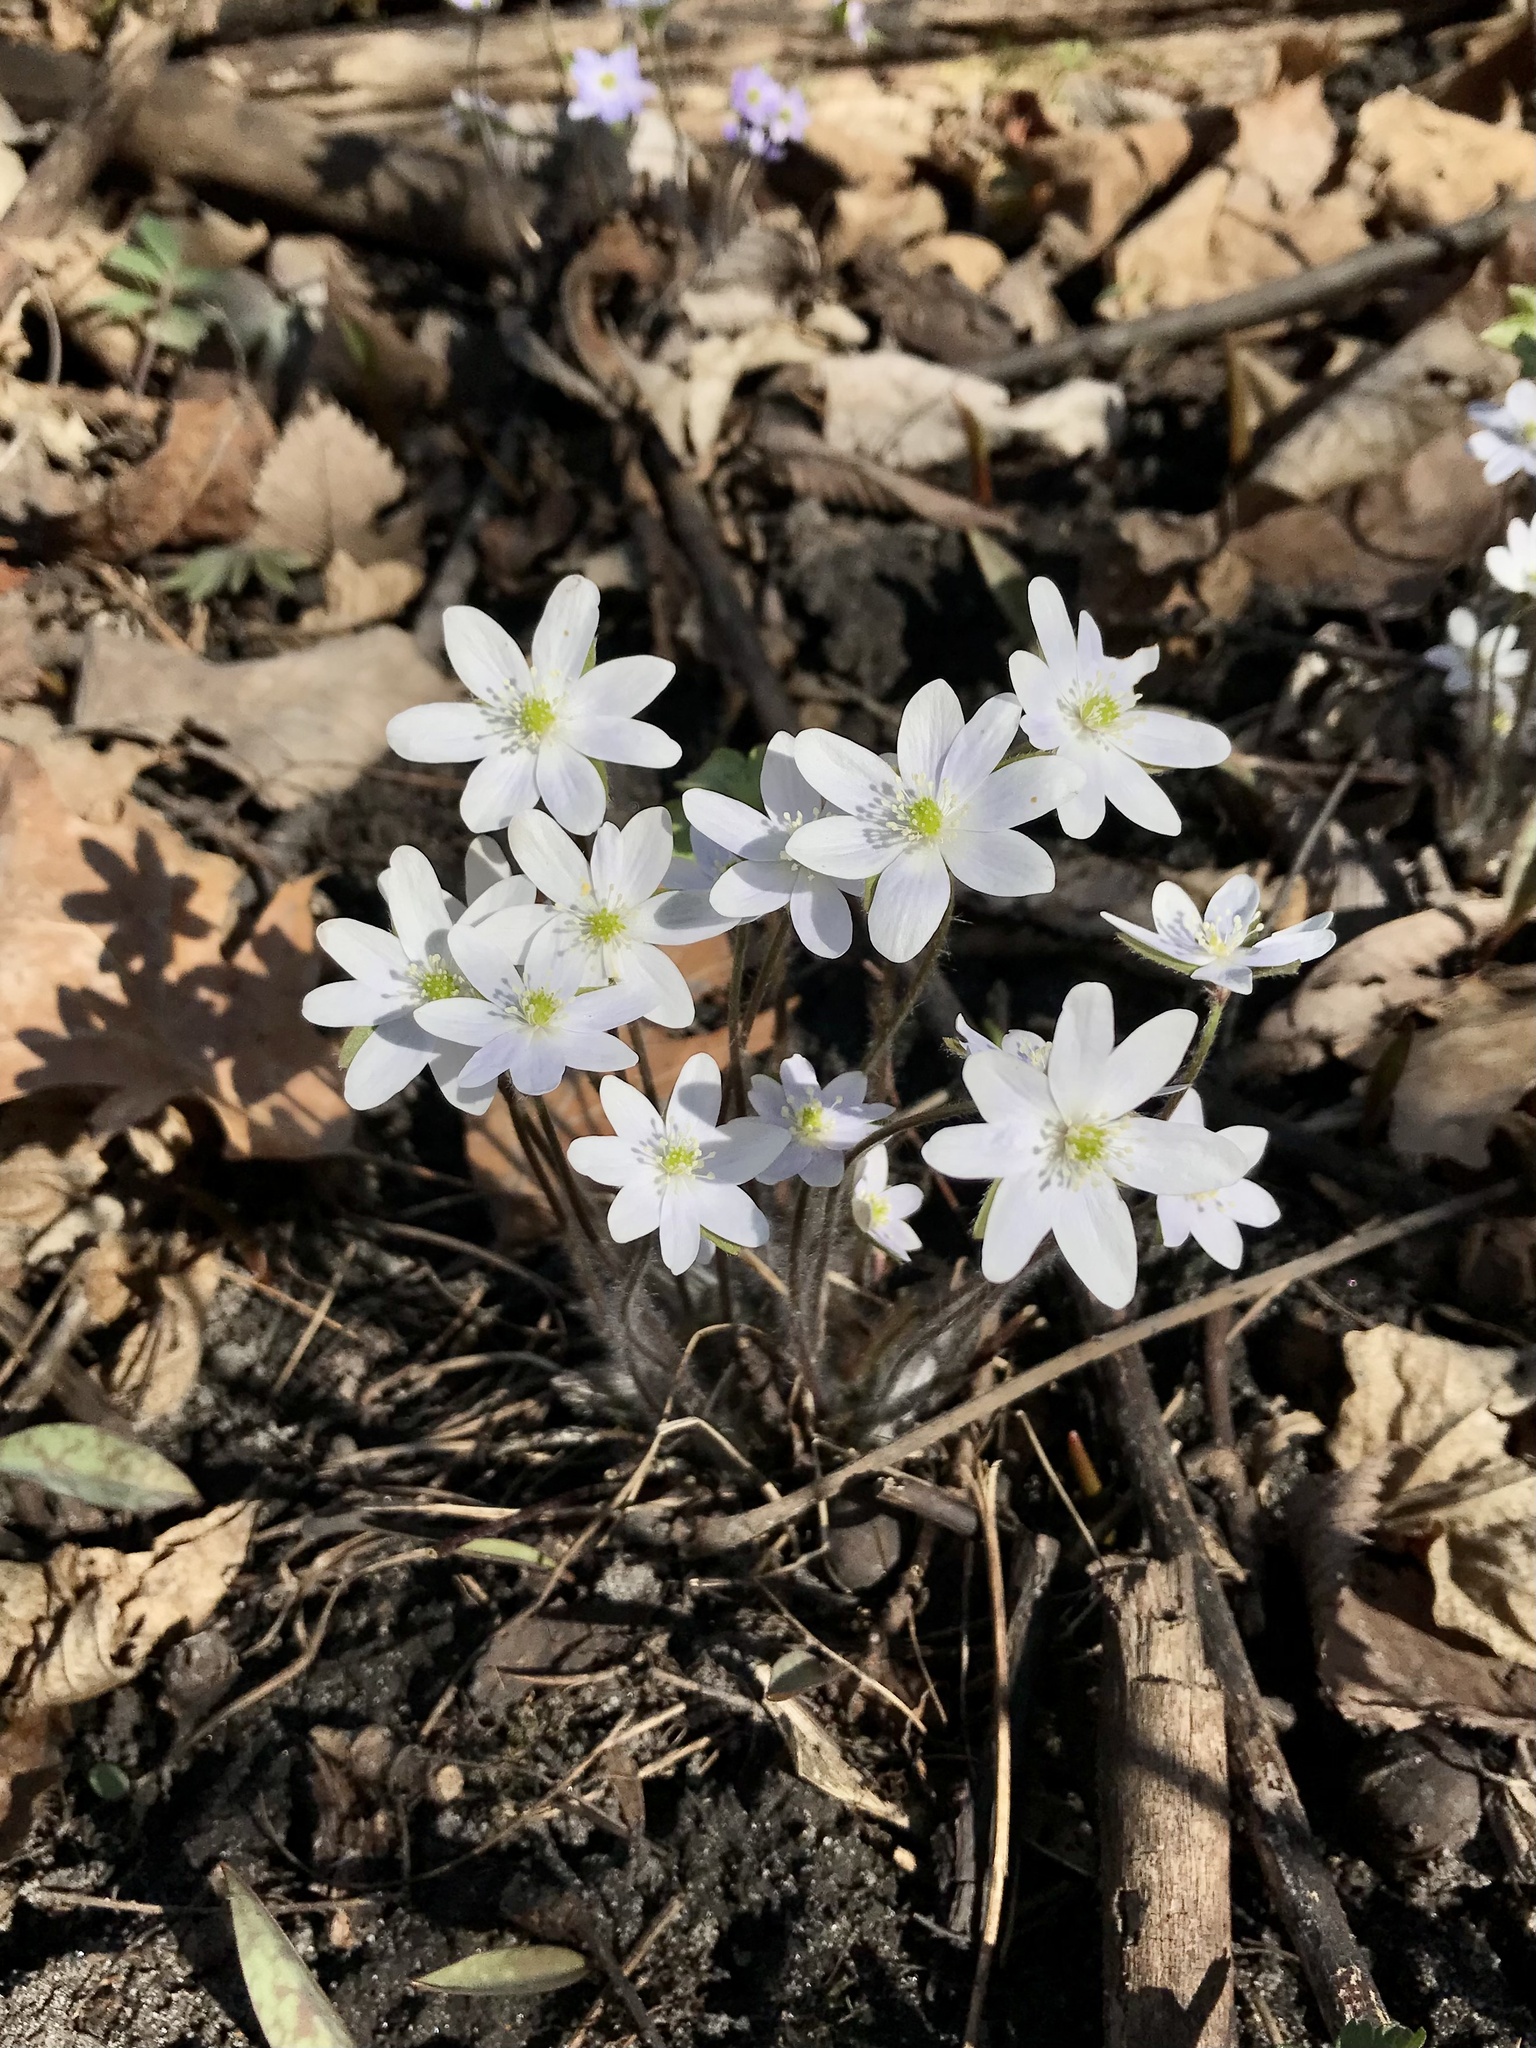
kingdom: Plantae
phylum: Tracheophyta
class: Magnoliopsida
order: Ranunculales
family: Ranunculaceae
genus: Hepatica
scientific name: Hepatica acutiloba
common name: Sharp-lobed hepatica
